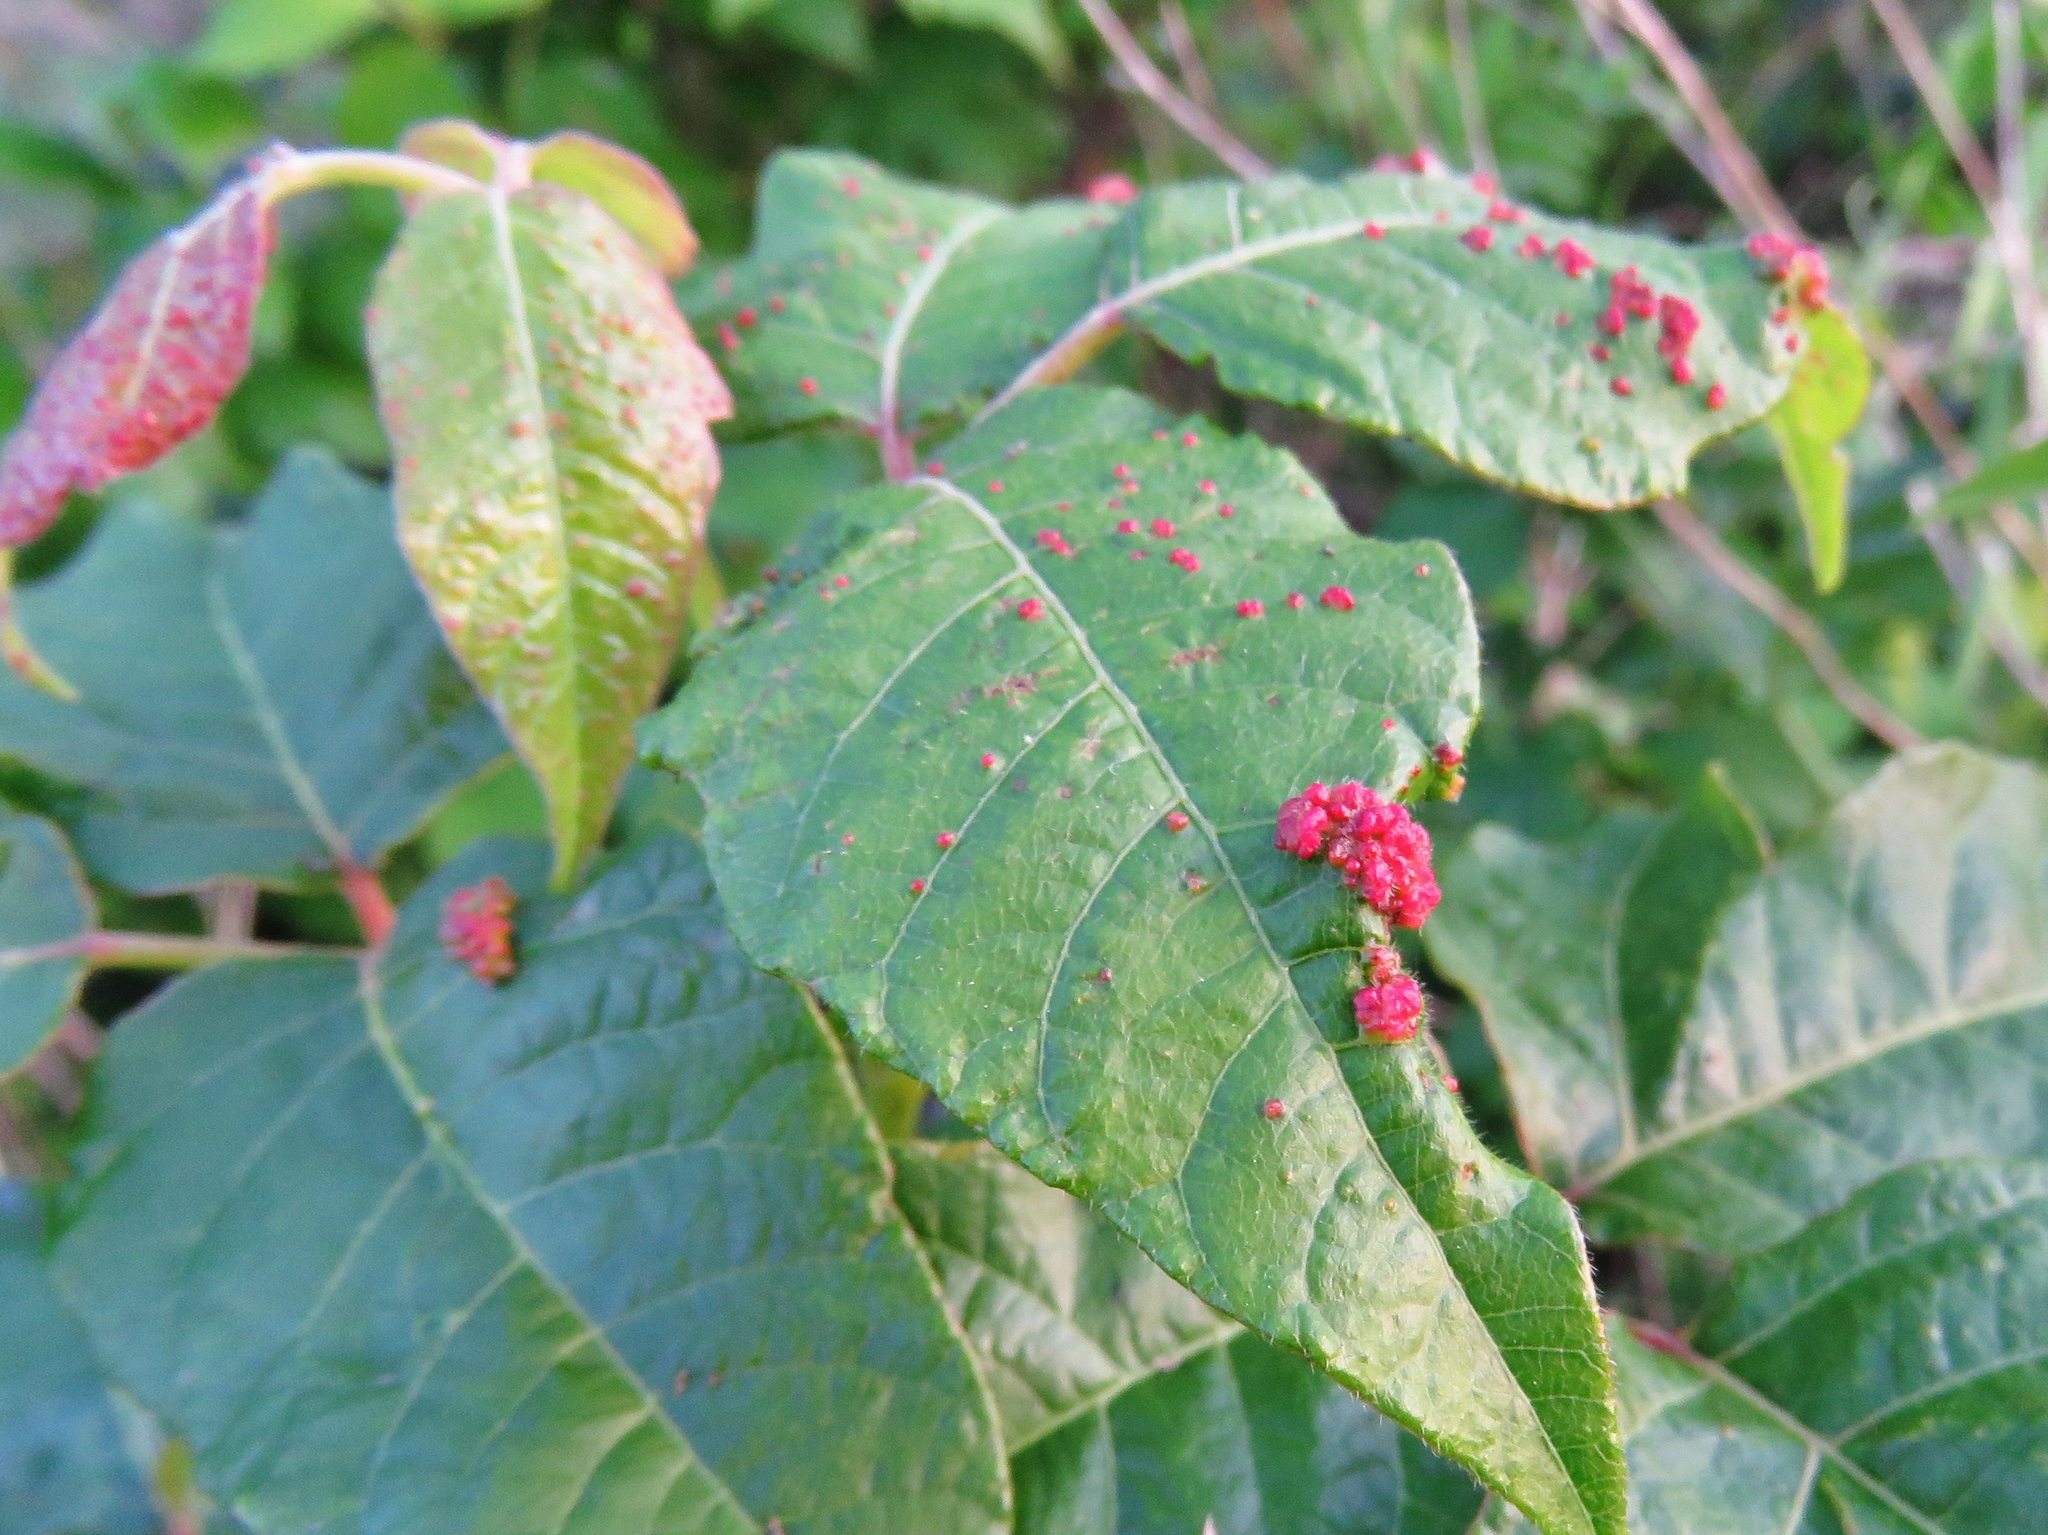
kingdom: Animalia
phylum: Arthropoda
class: Arachnida
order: Trombidiformes
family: Eriophyidae
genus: Aculops
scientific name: Aculops
